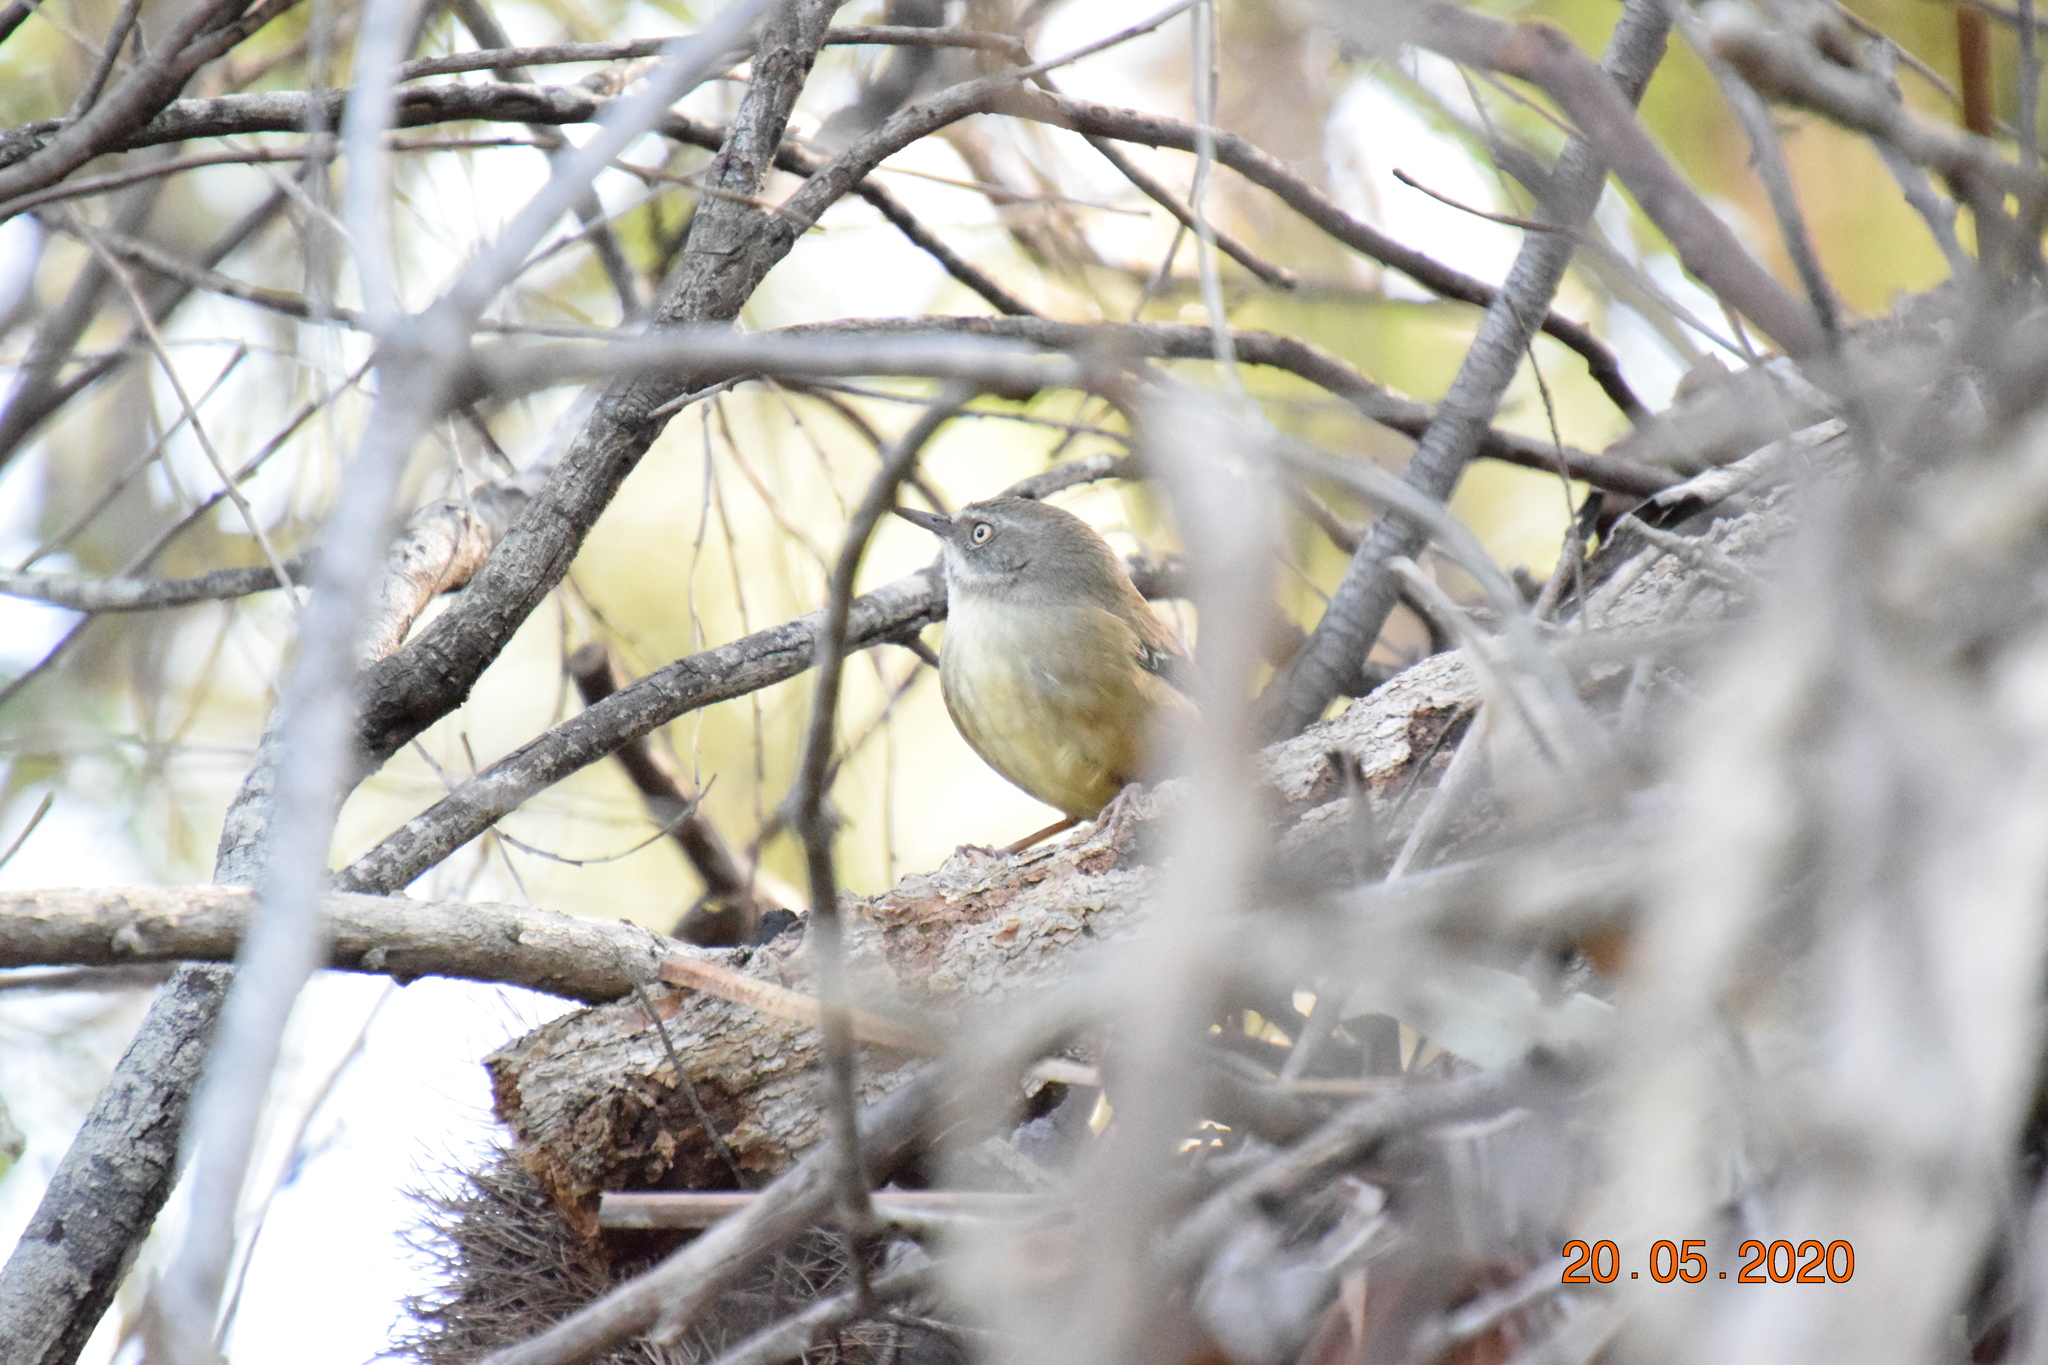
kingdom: Animalia
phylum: Chordata
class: Aves
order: Passeriformes
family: Acanthizidae
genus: Sericornis
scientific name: Sericornis frontalis
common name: White-browed scrubwren
